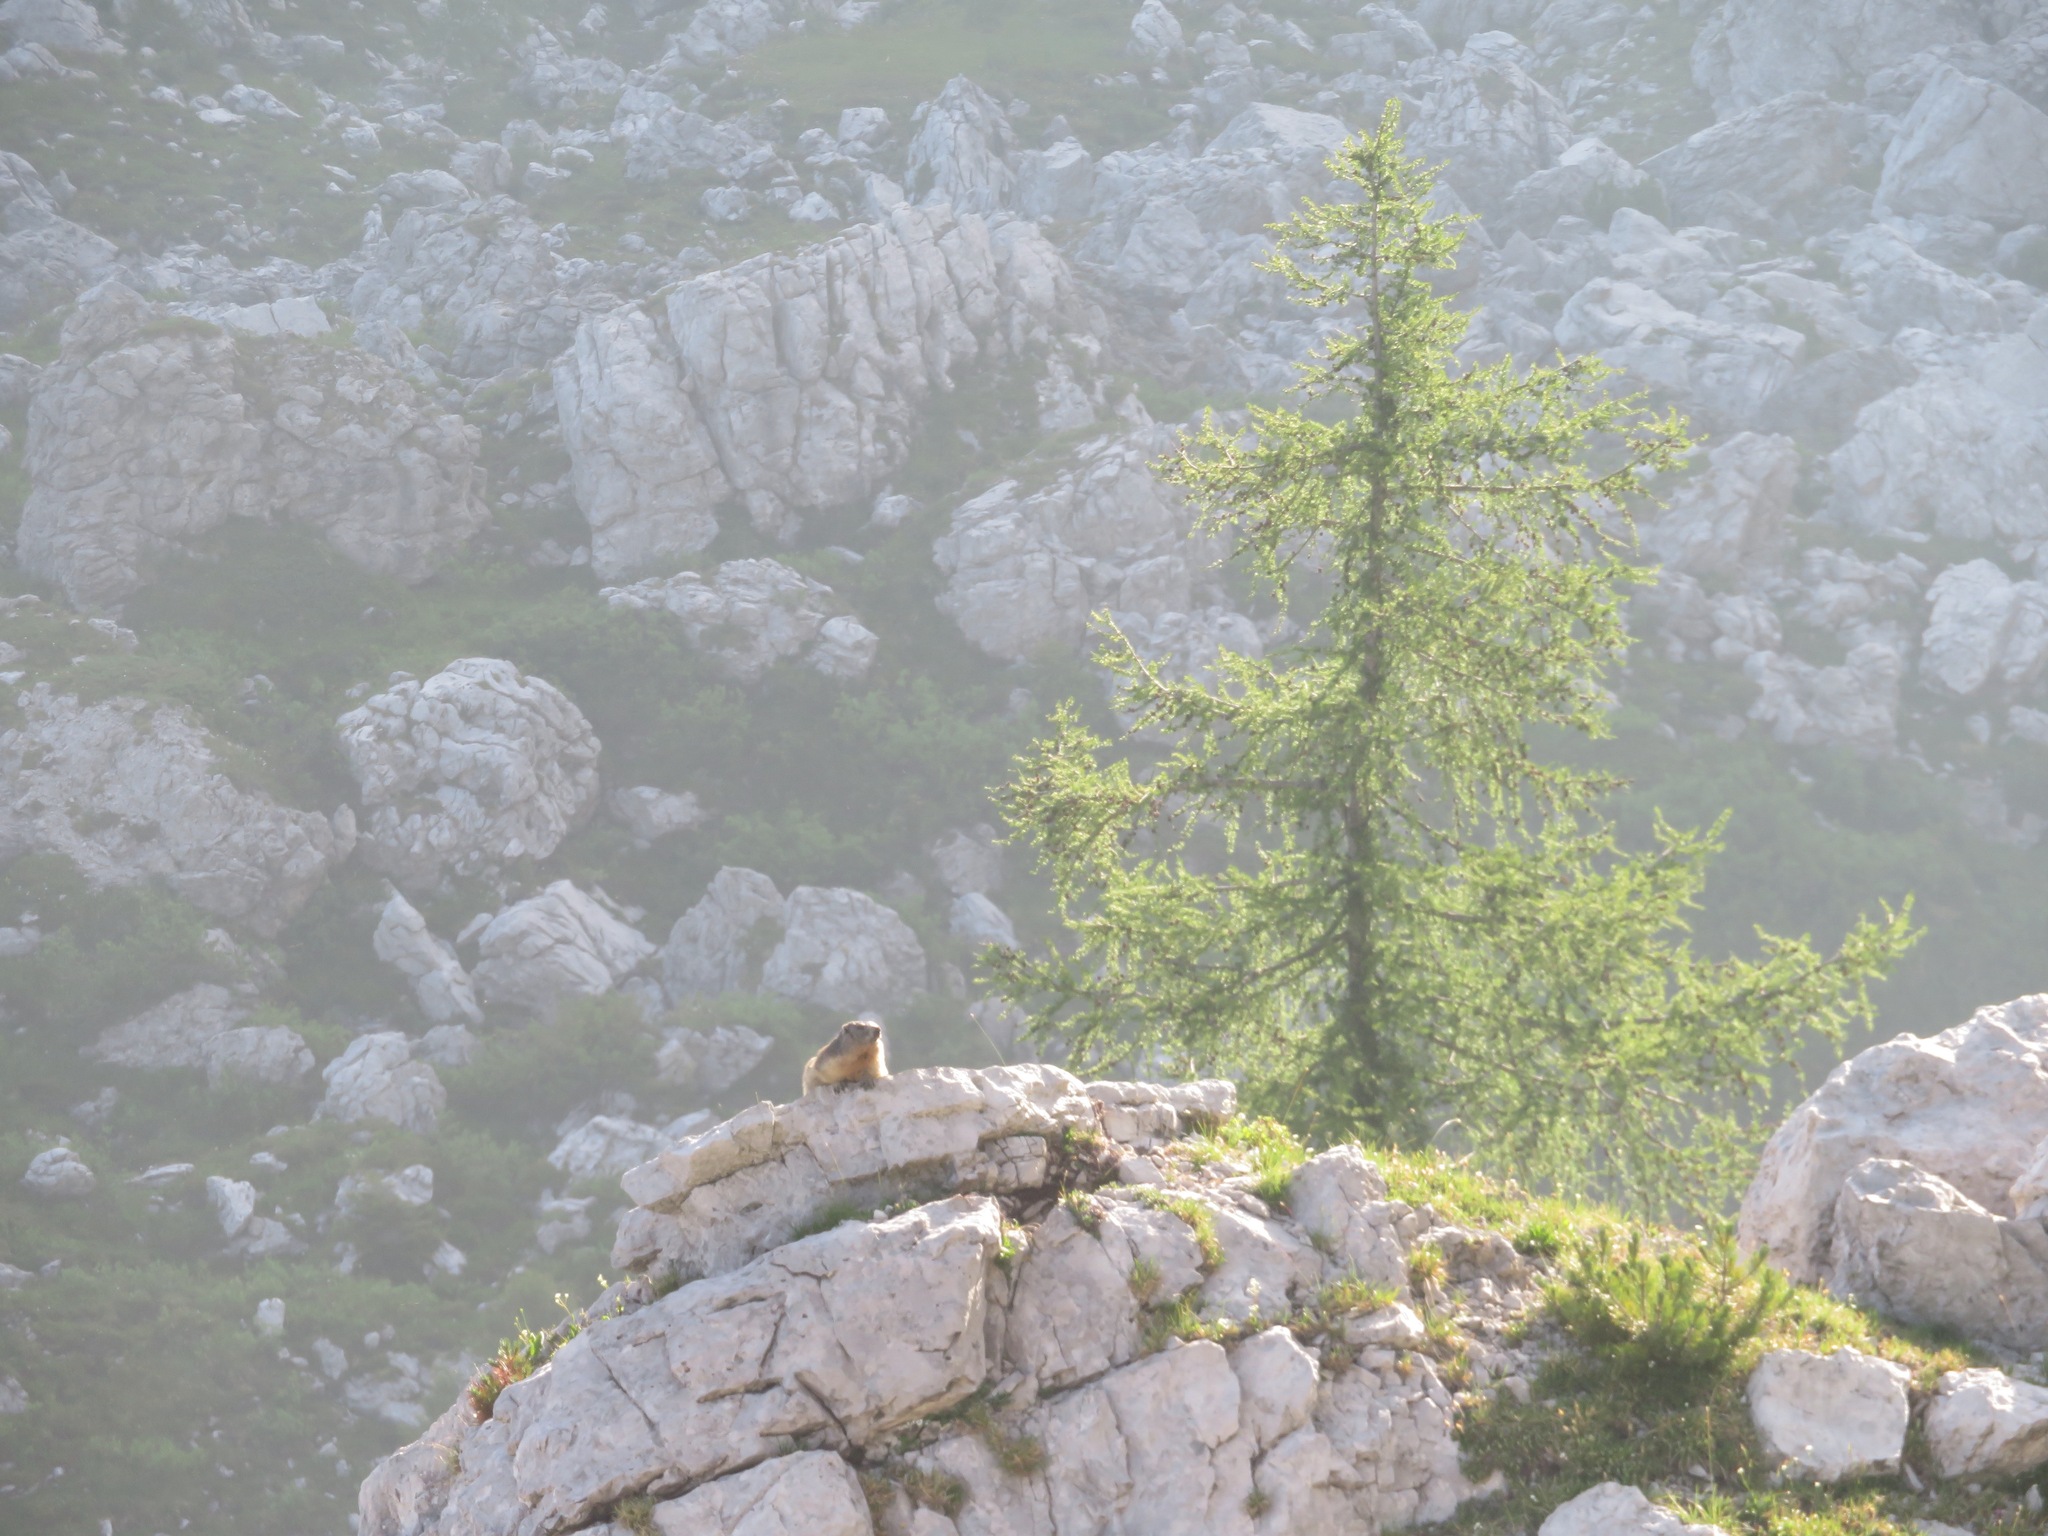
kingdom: Animalia
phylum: Chordata
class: Mammalia
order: Rodentia
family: Sciuridae
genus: Marmota
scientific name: Marmota marmota
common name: Alpine marmot
